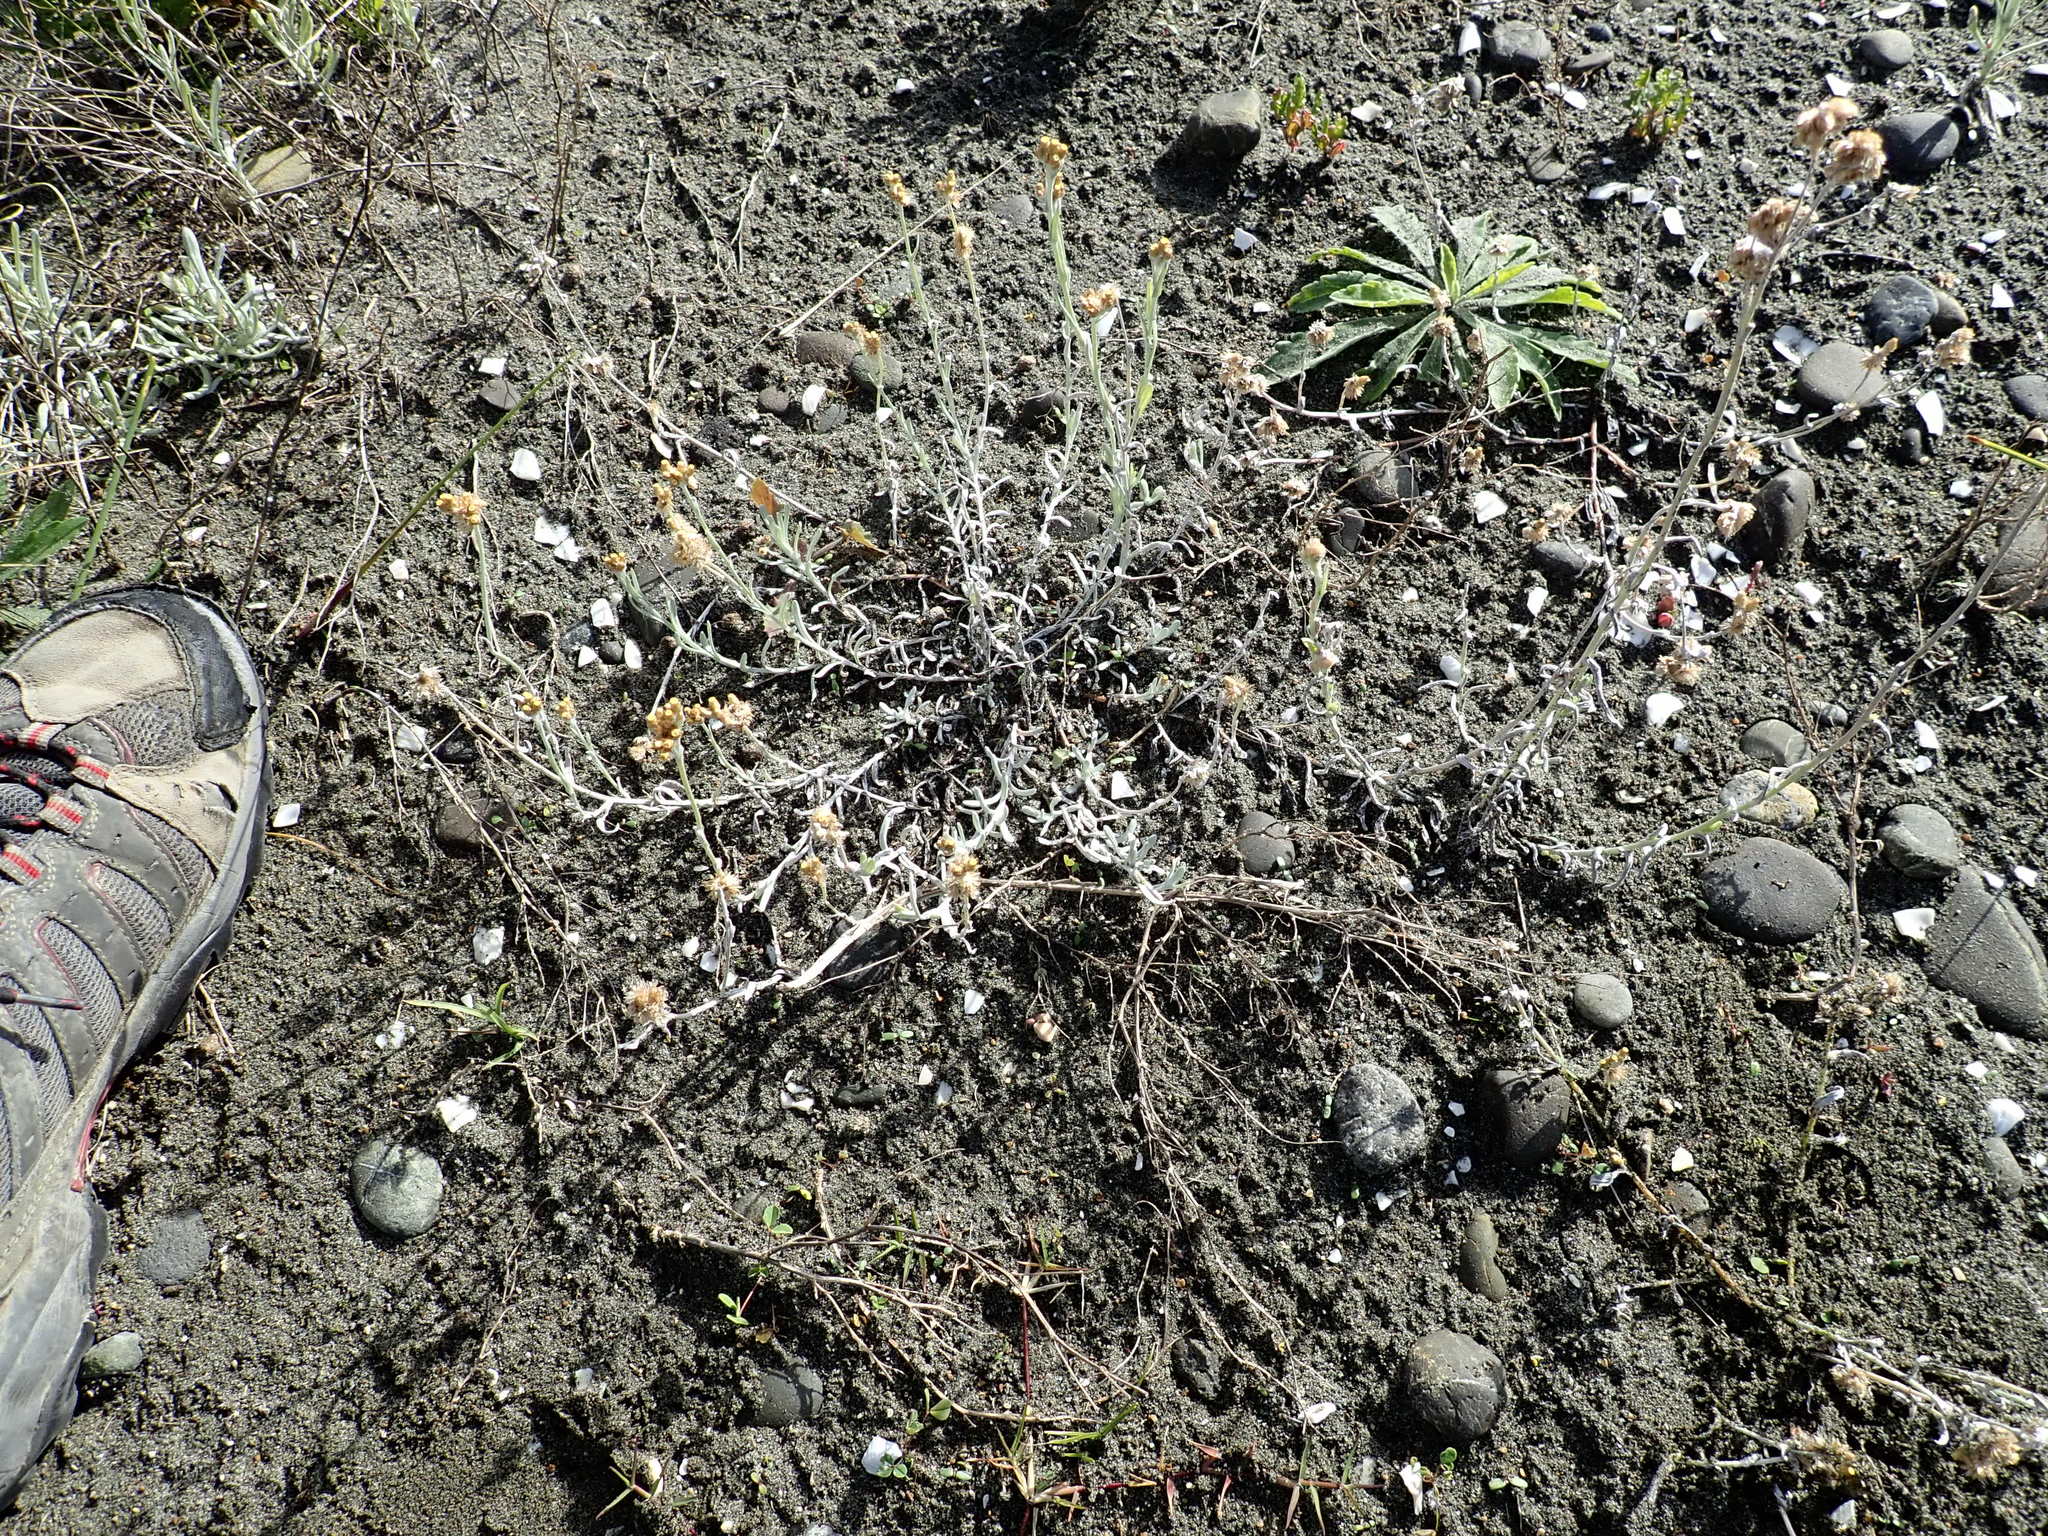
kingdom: Plantae
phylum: Tracheophyta
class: Magnoliopsida
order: Asterales
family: Asteraceae
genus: Helichrysum
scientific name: Helichrysum luteoalbum
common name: Daisy
